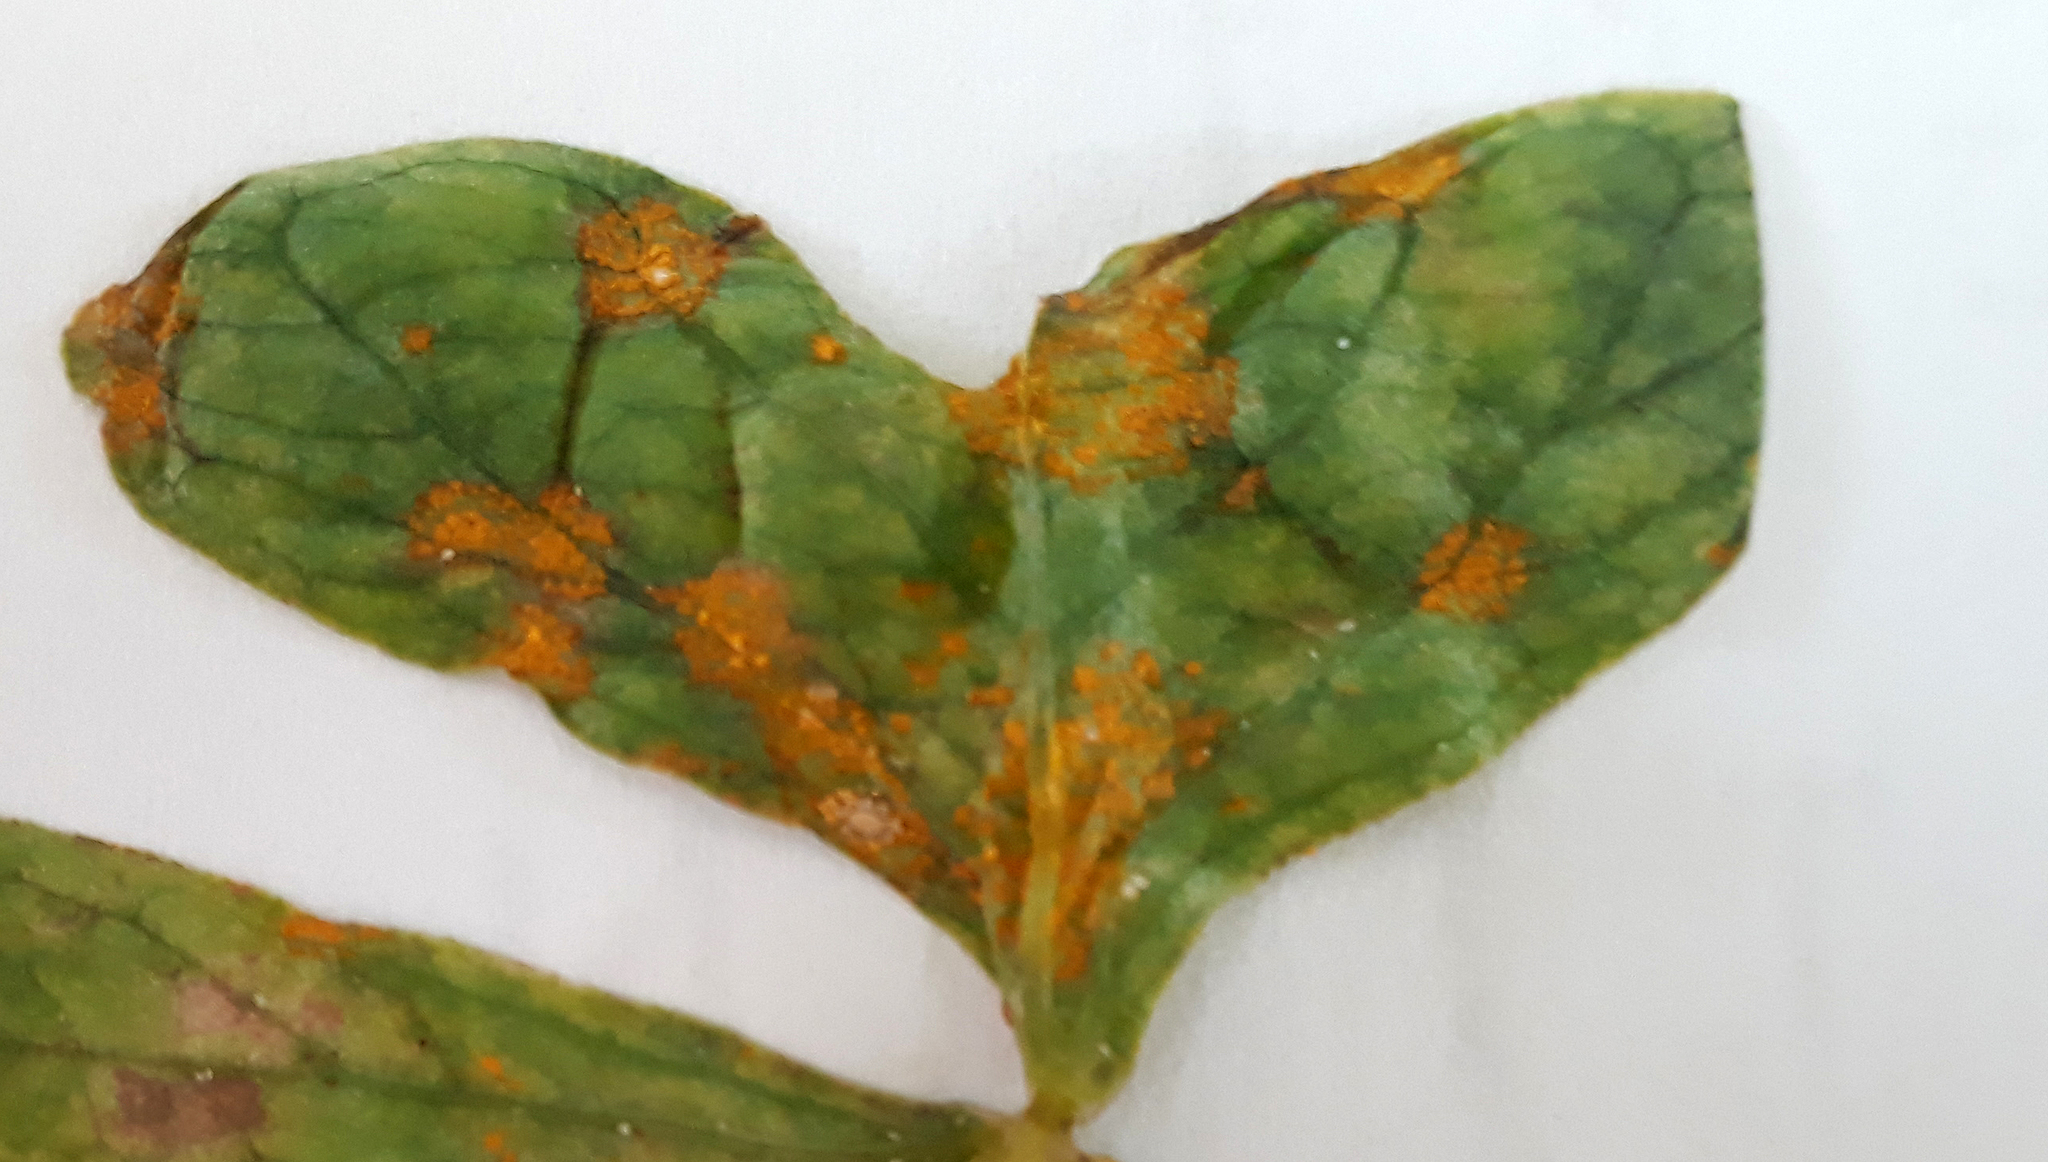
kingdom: Fungi
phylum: Basidiomycota
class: Pucciniomycetes
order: Pucciniales
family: Pucciniaceae
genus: Puccinia
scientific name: Puccinia oxalidis
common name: Oxalis rust
